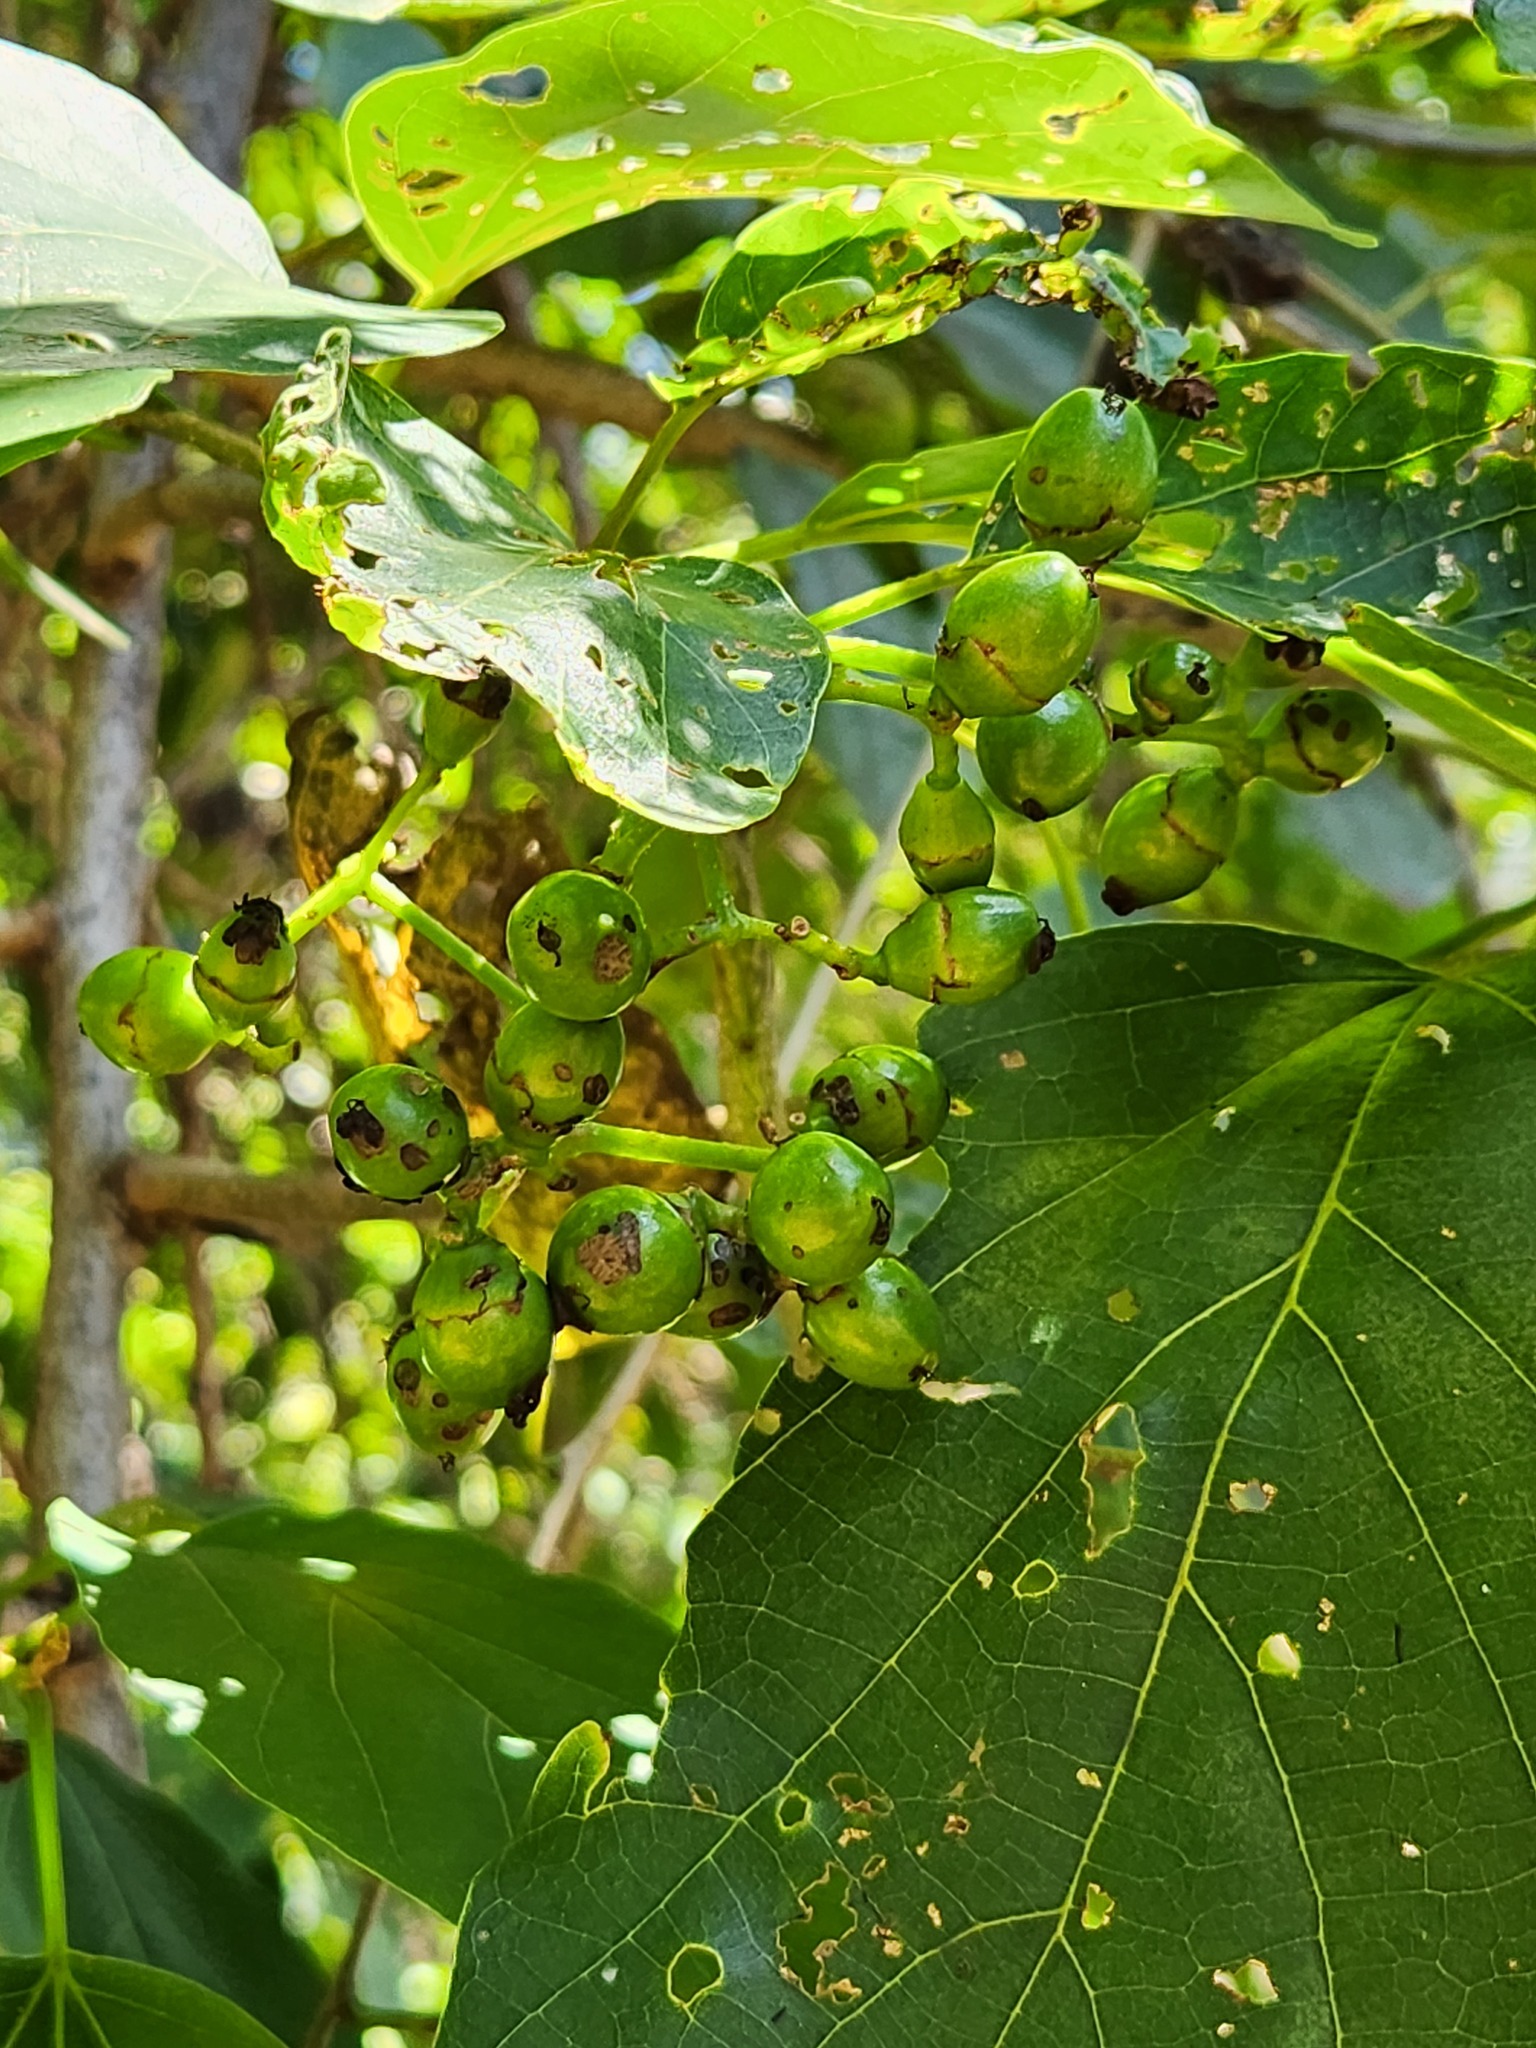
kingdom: Plantae
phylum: Tracheophyta
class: Magnoliopsida
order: Boraginales
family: Cordiaceae
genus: Cordia
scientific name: Cordia myxa
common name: Assyrian plum
